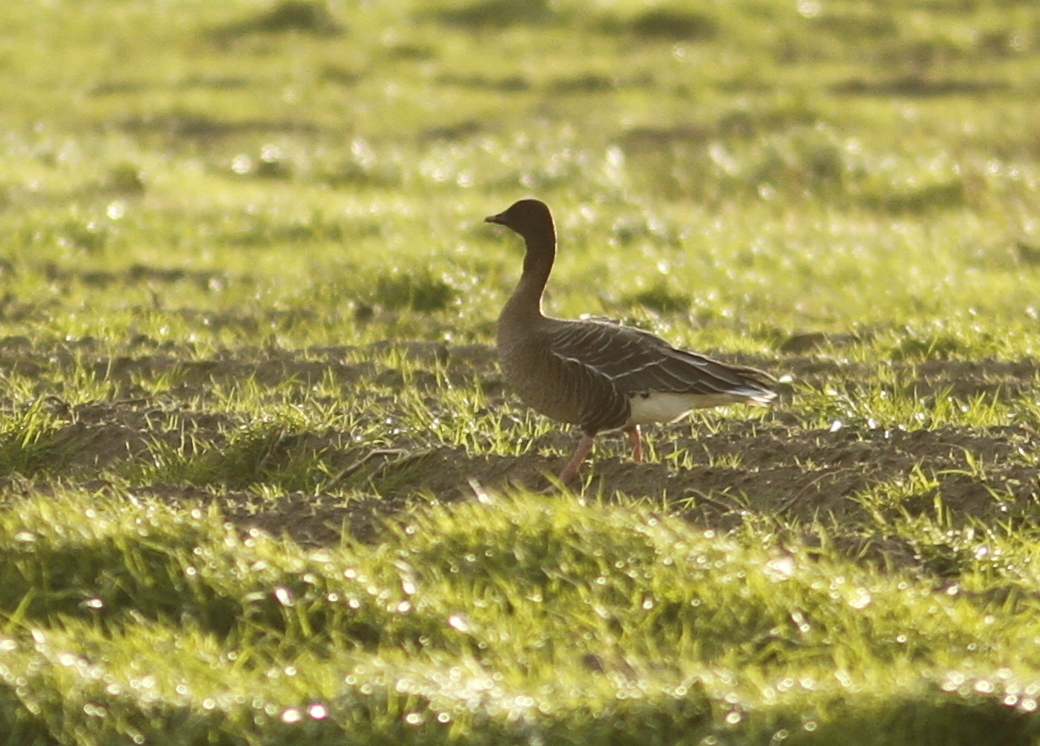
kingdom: Animalia
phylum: Chordata
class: Aves
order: Anseriformes
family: Anatidae
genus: Anser
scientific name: Anser brachyrhynchus
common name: Pink-footed goose
